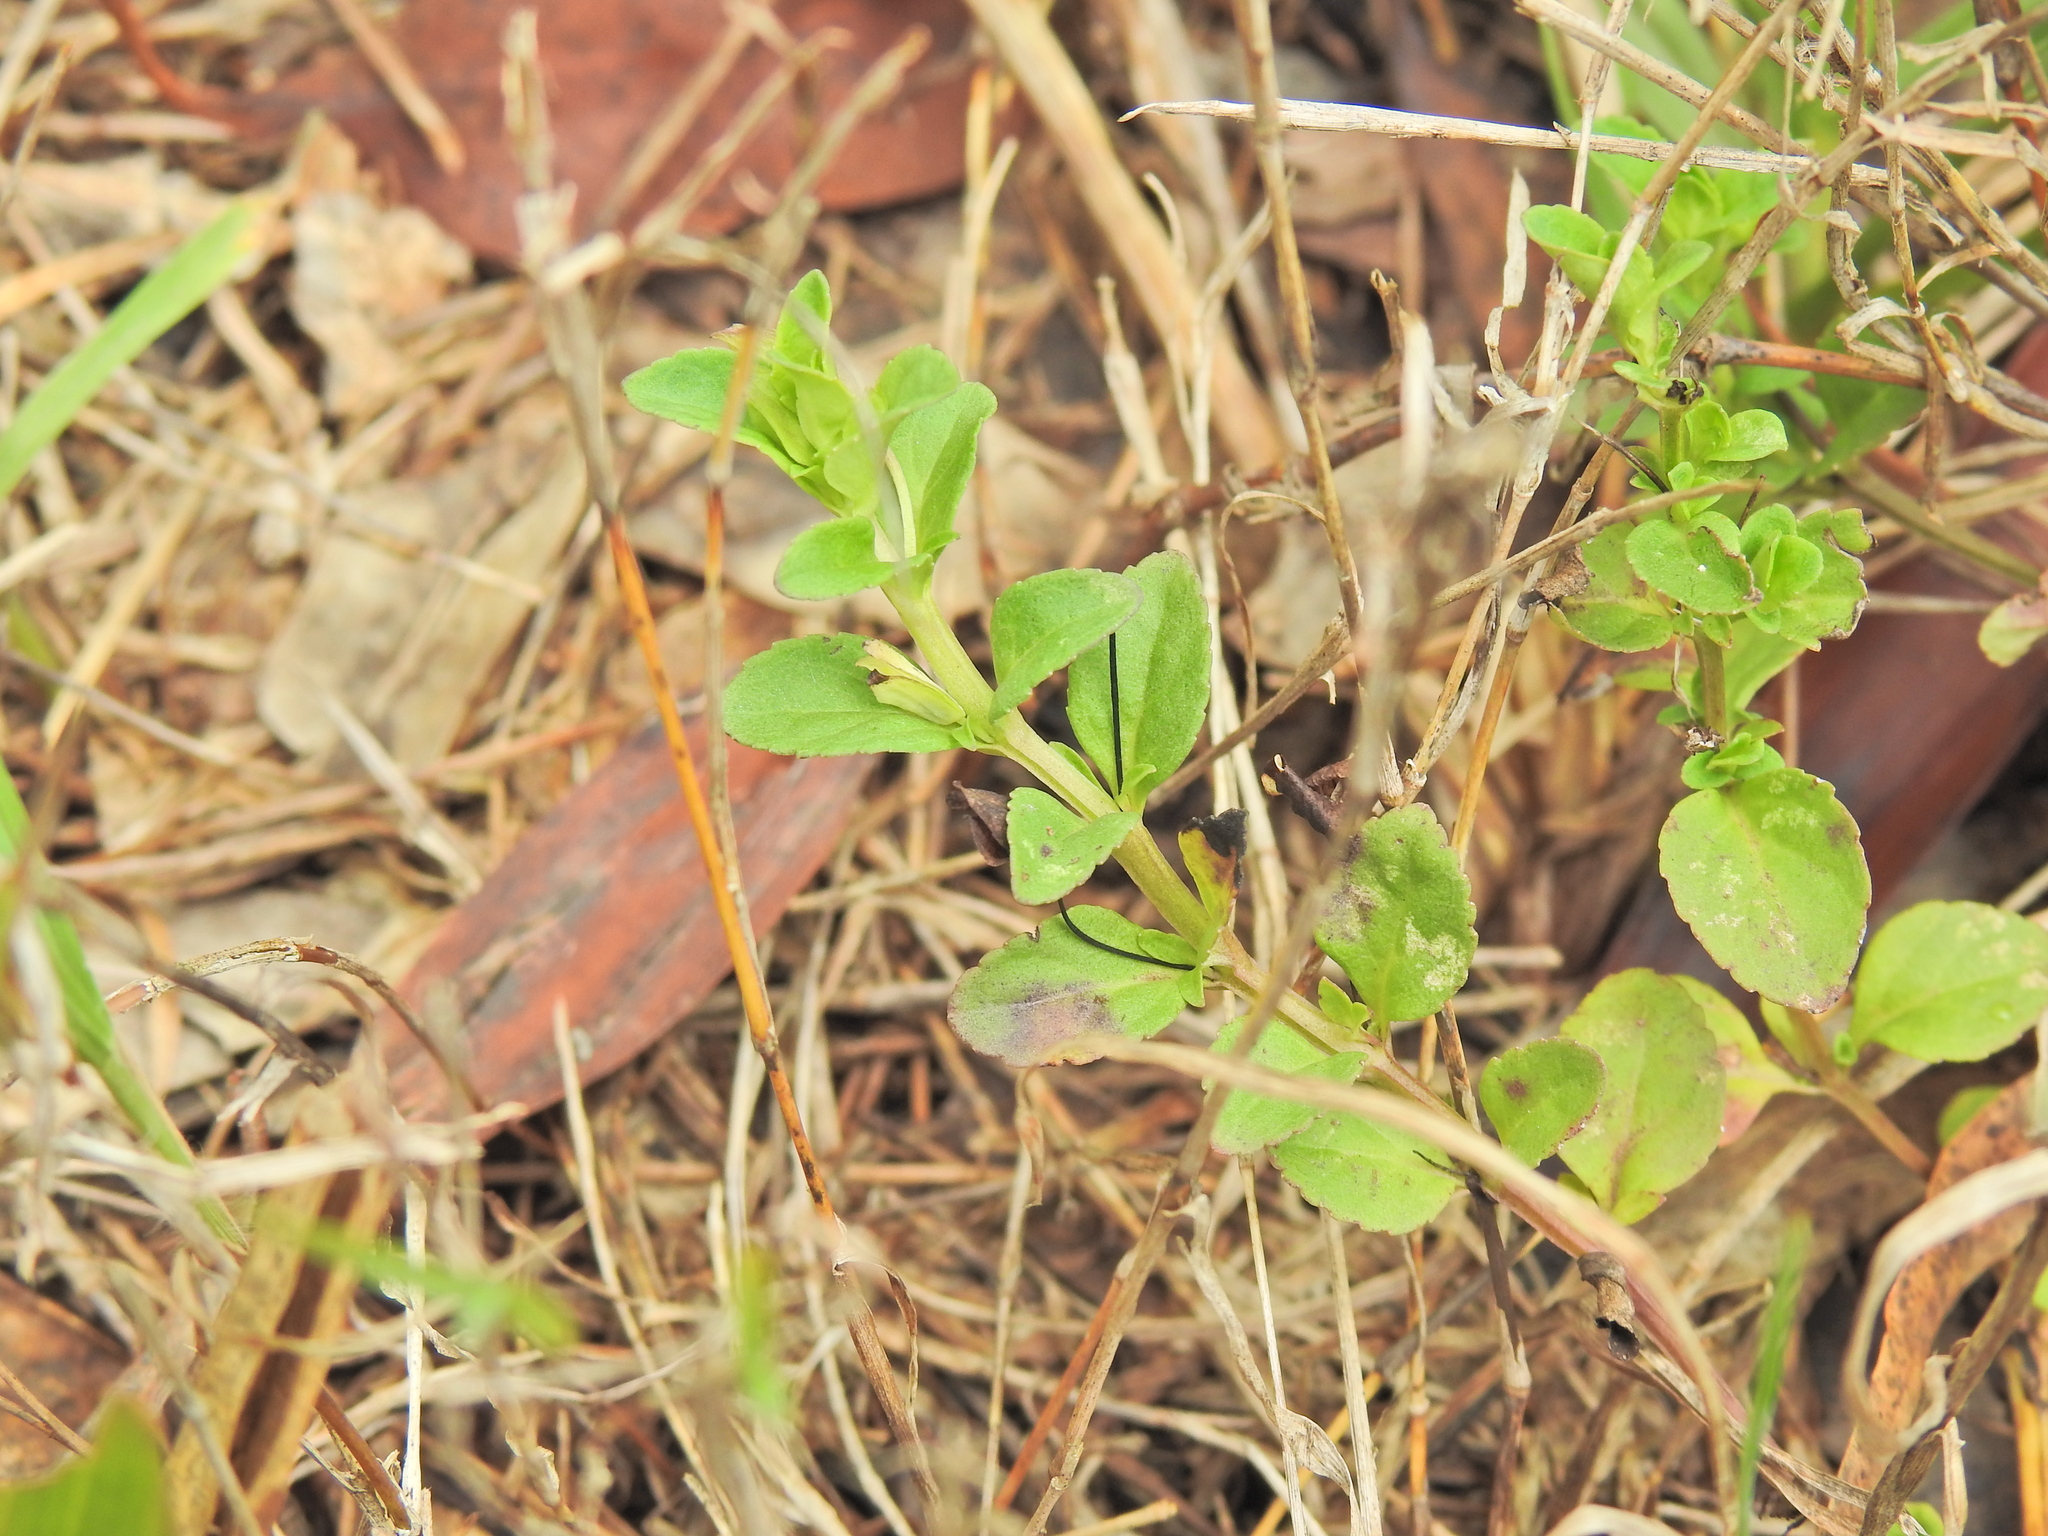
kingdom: Plantae
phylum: Tracheophyta
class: Magnoliopsida
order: Lamiales
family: Plantaginaceae
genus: Mecardonia
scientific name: Mecardonia procumbens
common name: Baby jump-up
